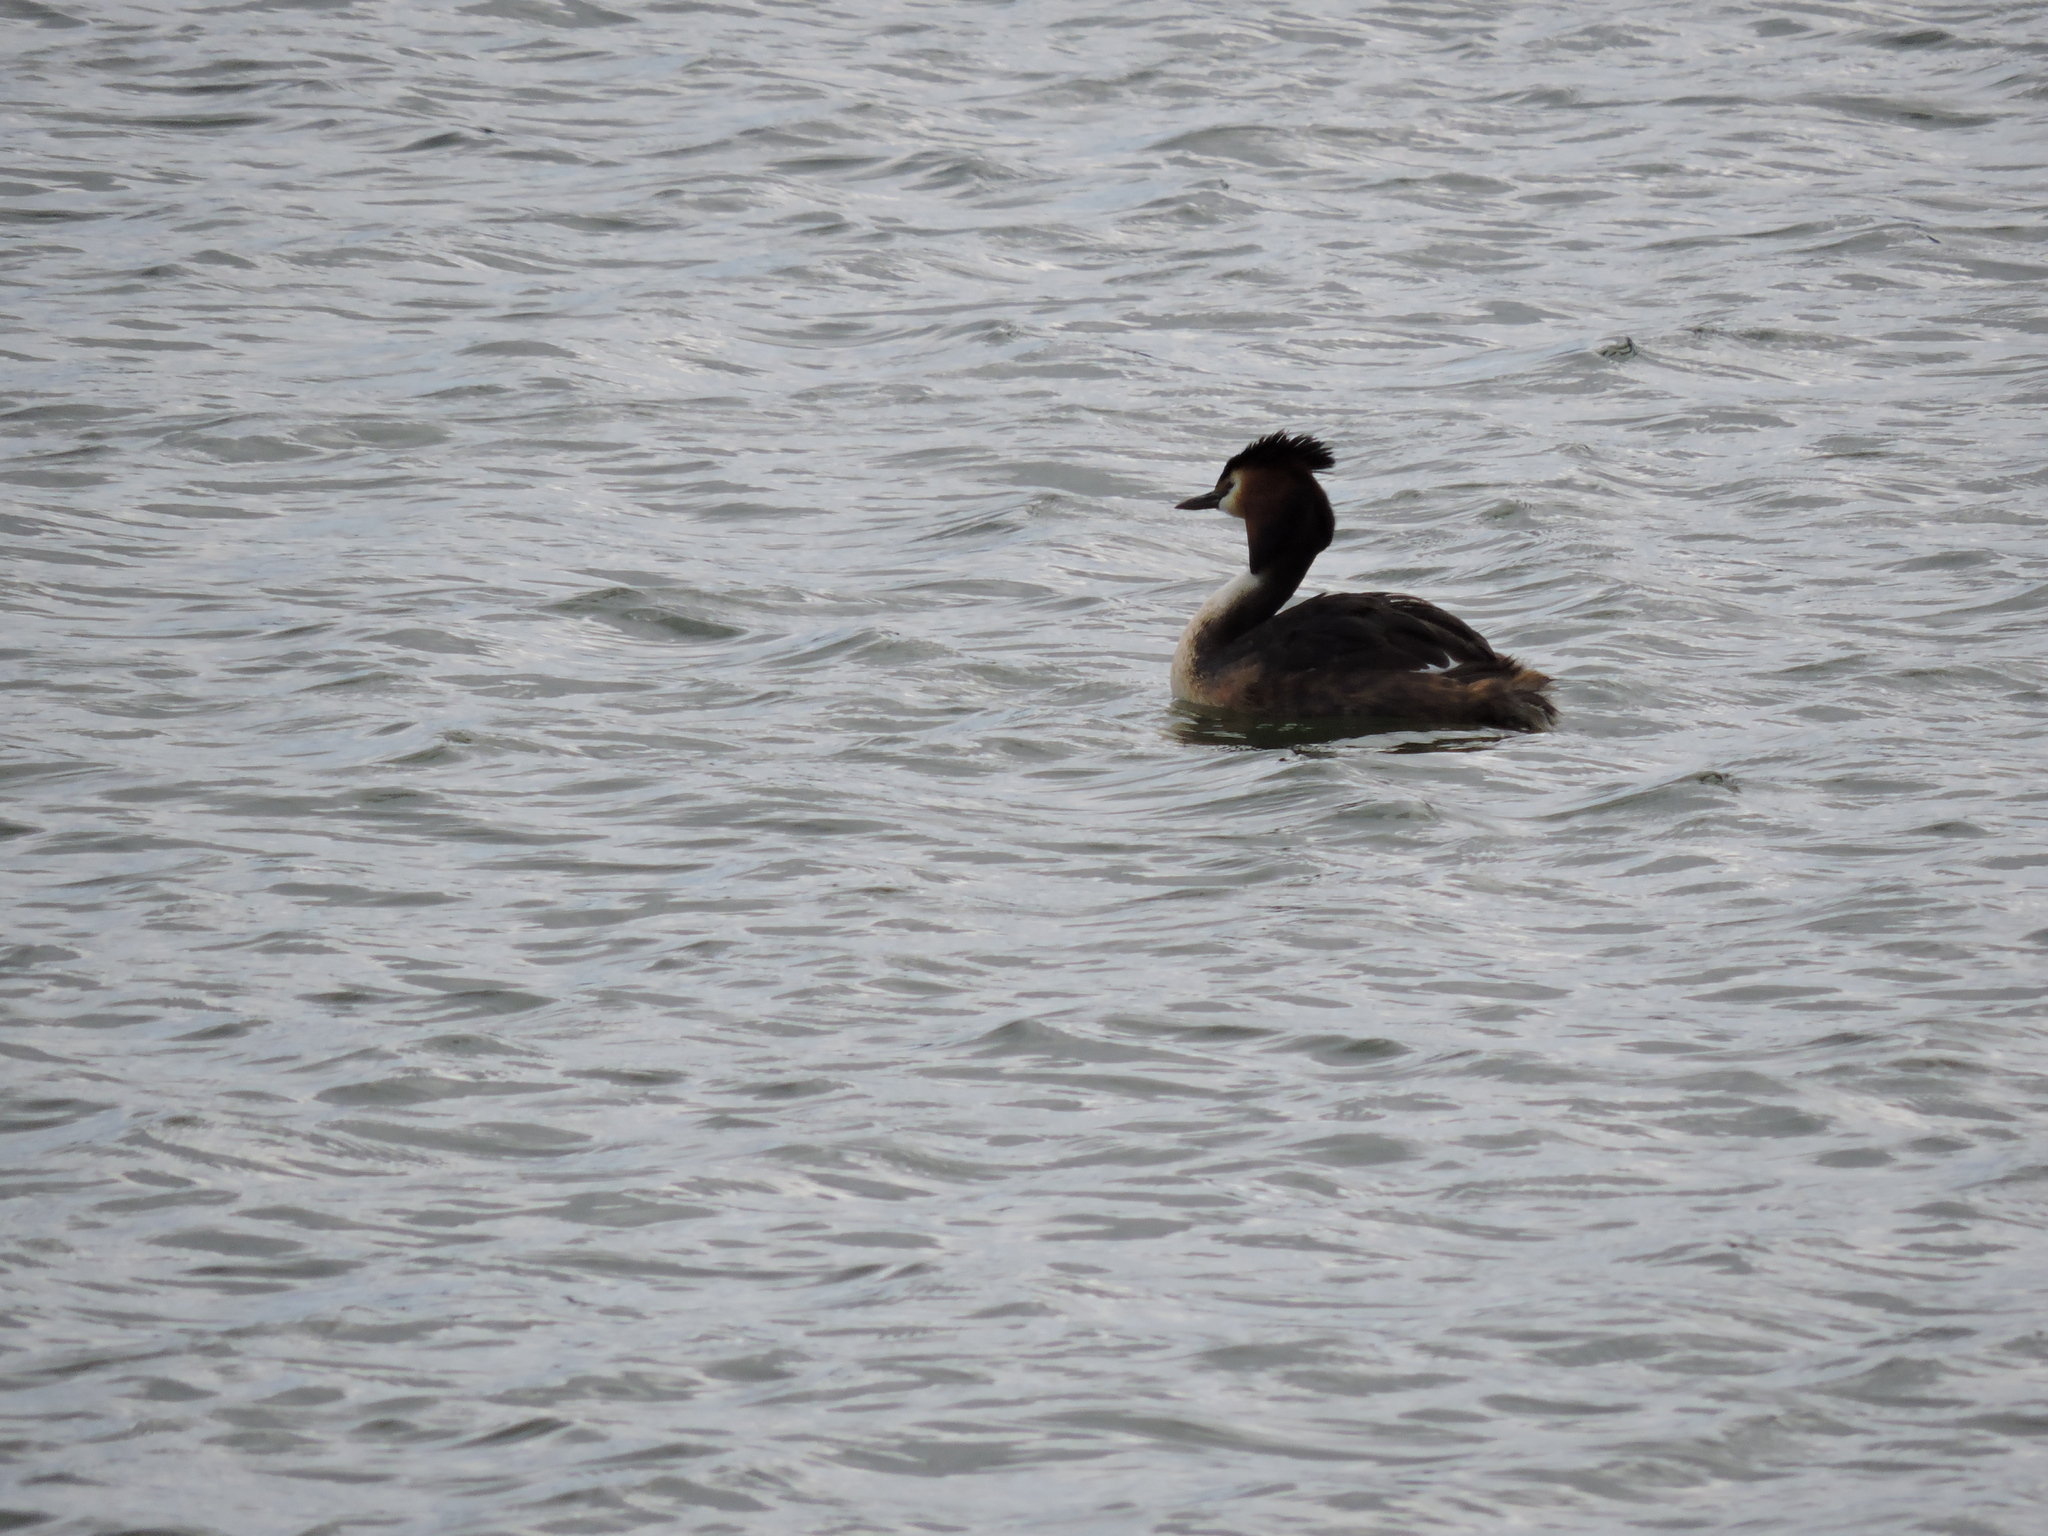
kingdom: Animalia
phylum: Chordata
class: Aves
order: Podicipediformes
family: Podicipedidae
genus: Podiceps
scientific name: Podiceps cristatus
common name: Great crested grebe
